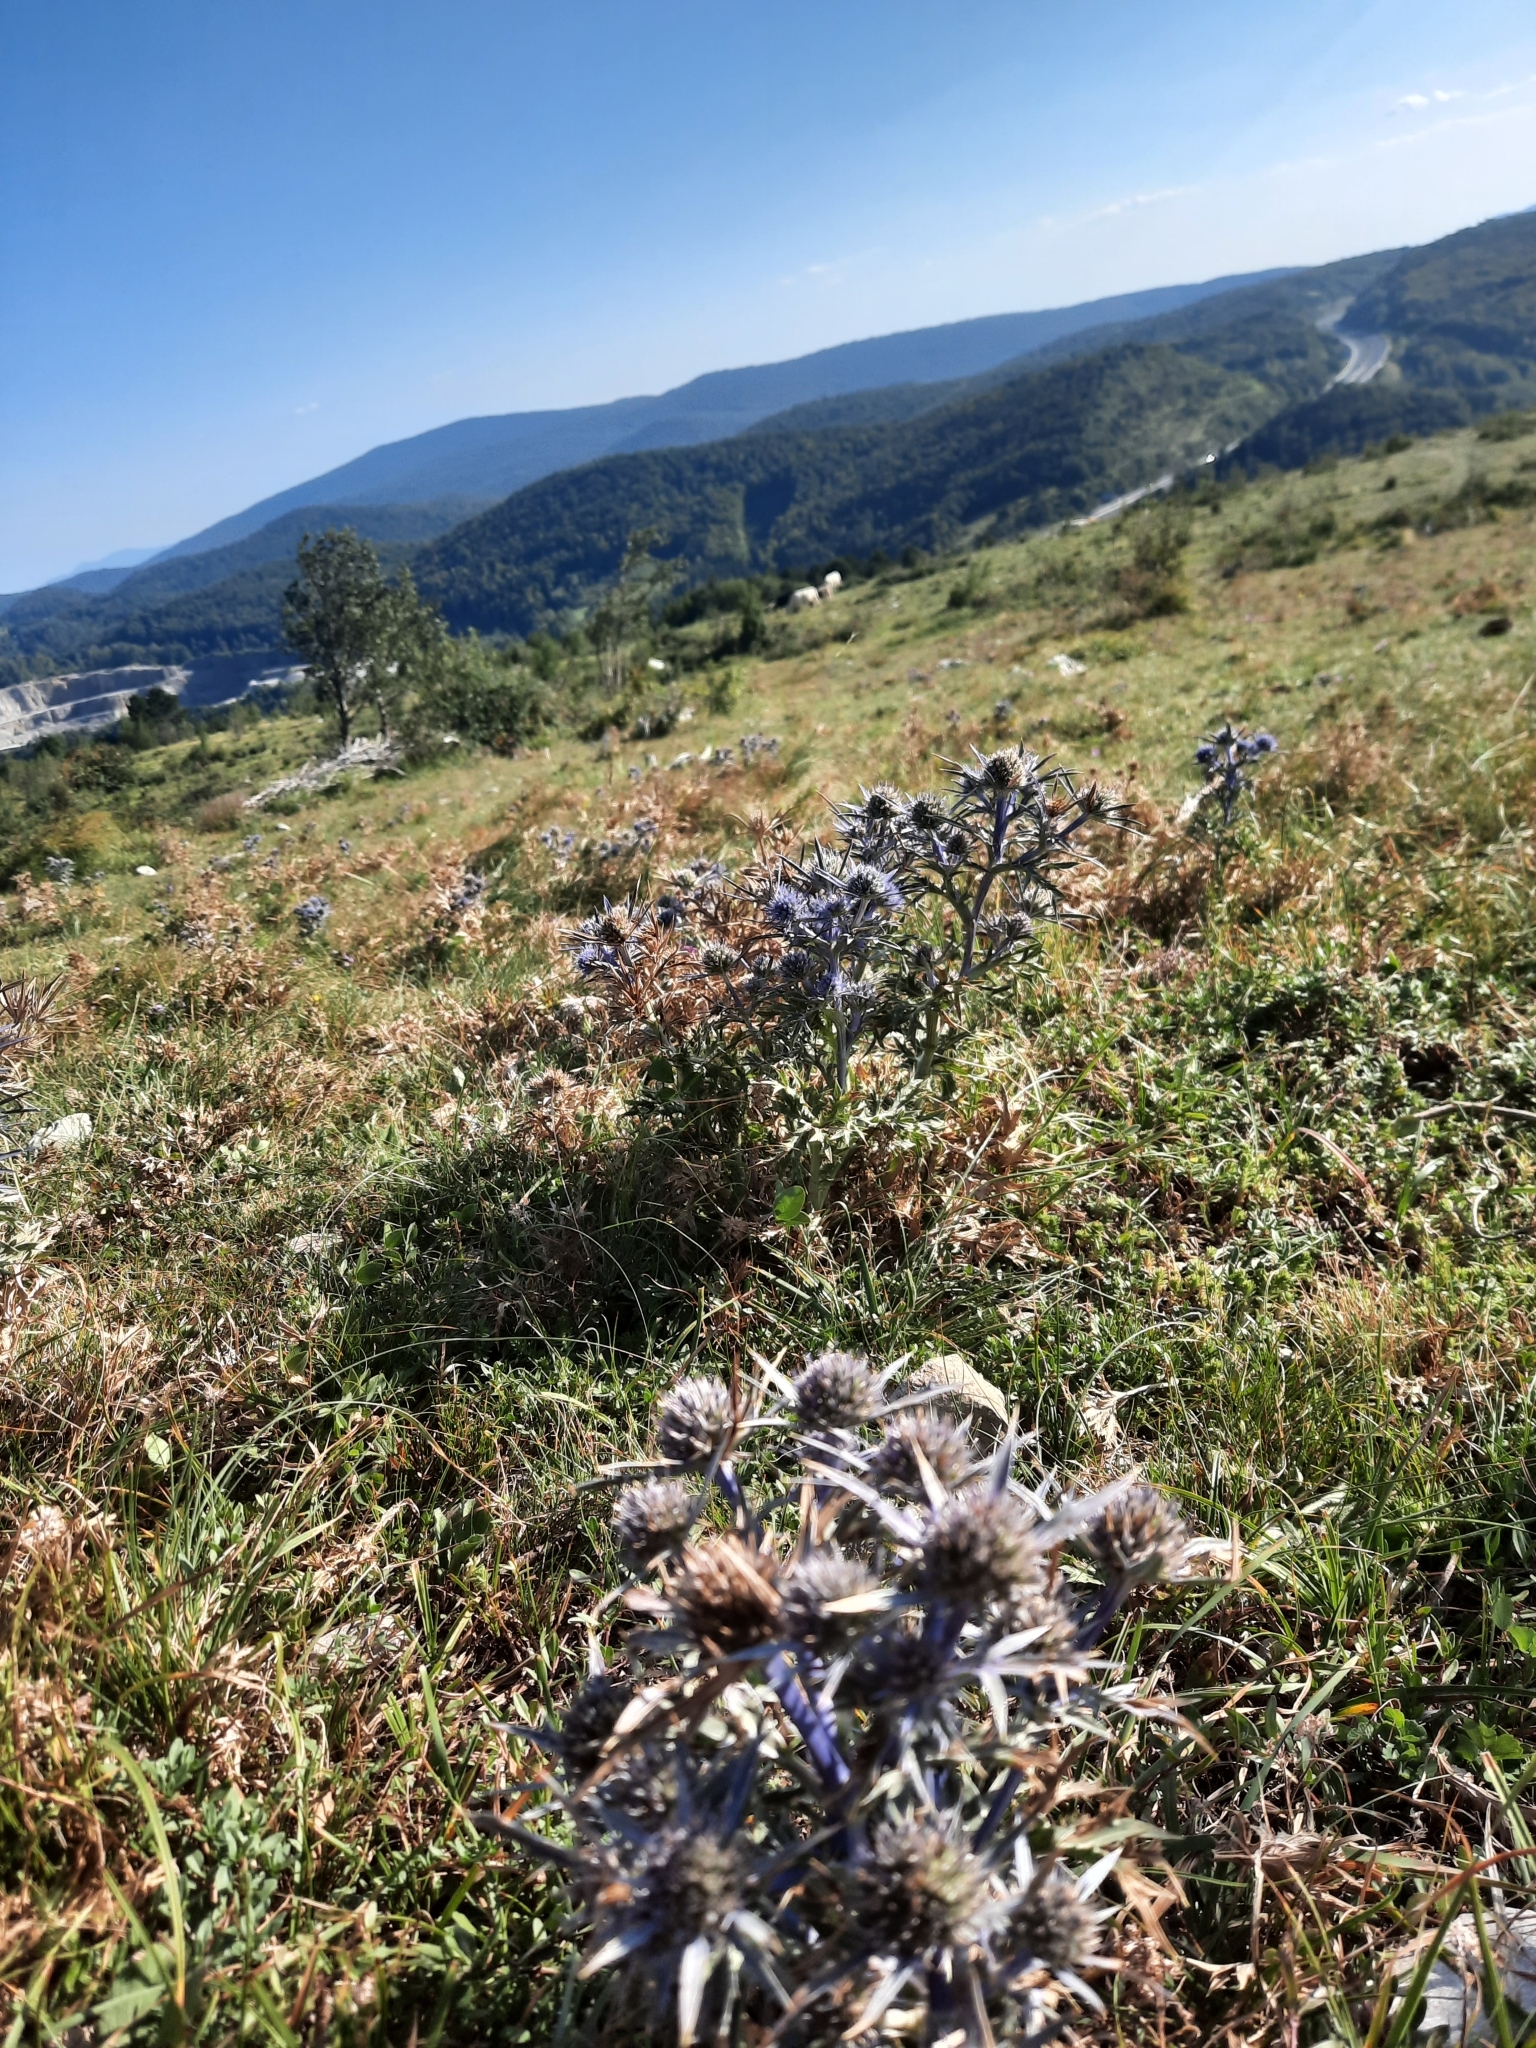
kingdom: Plantae
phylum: Tracheophyta
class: Magnoliopsida
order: Apiales
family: Apiaceae
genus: Eryngium
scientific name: Eryngium amethystinum
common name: Amethyst eryngo
